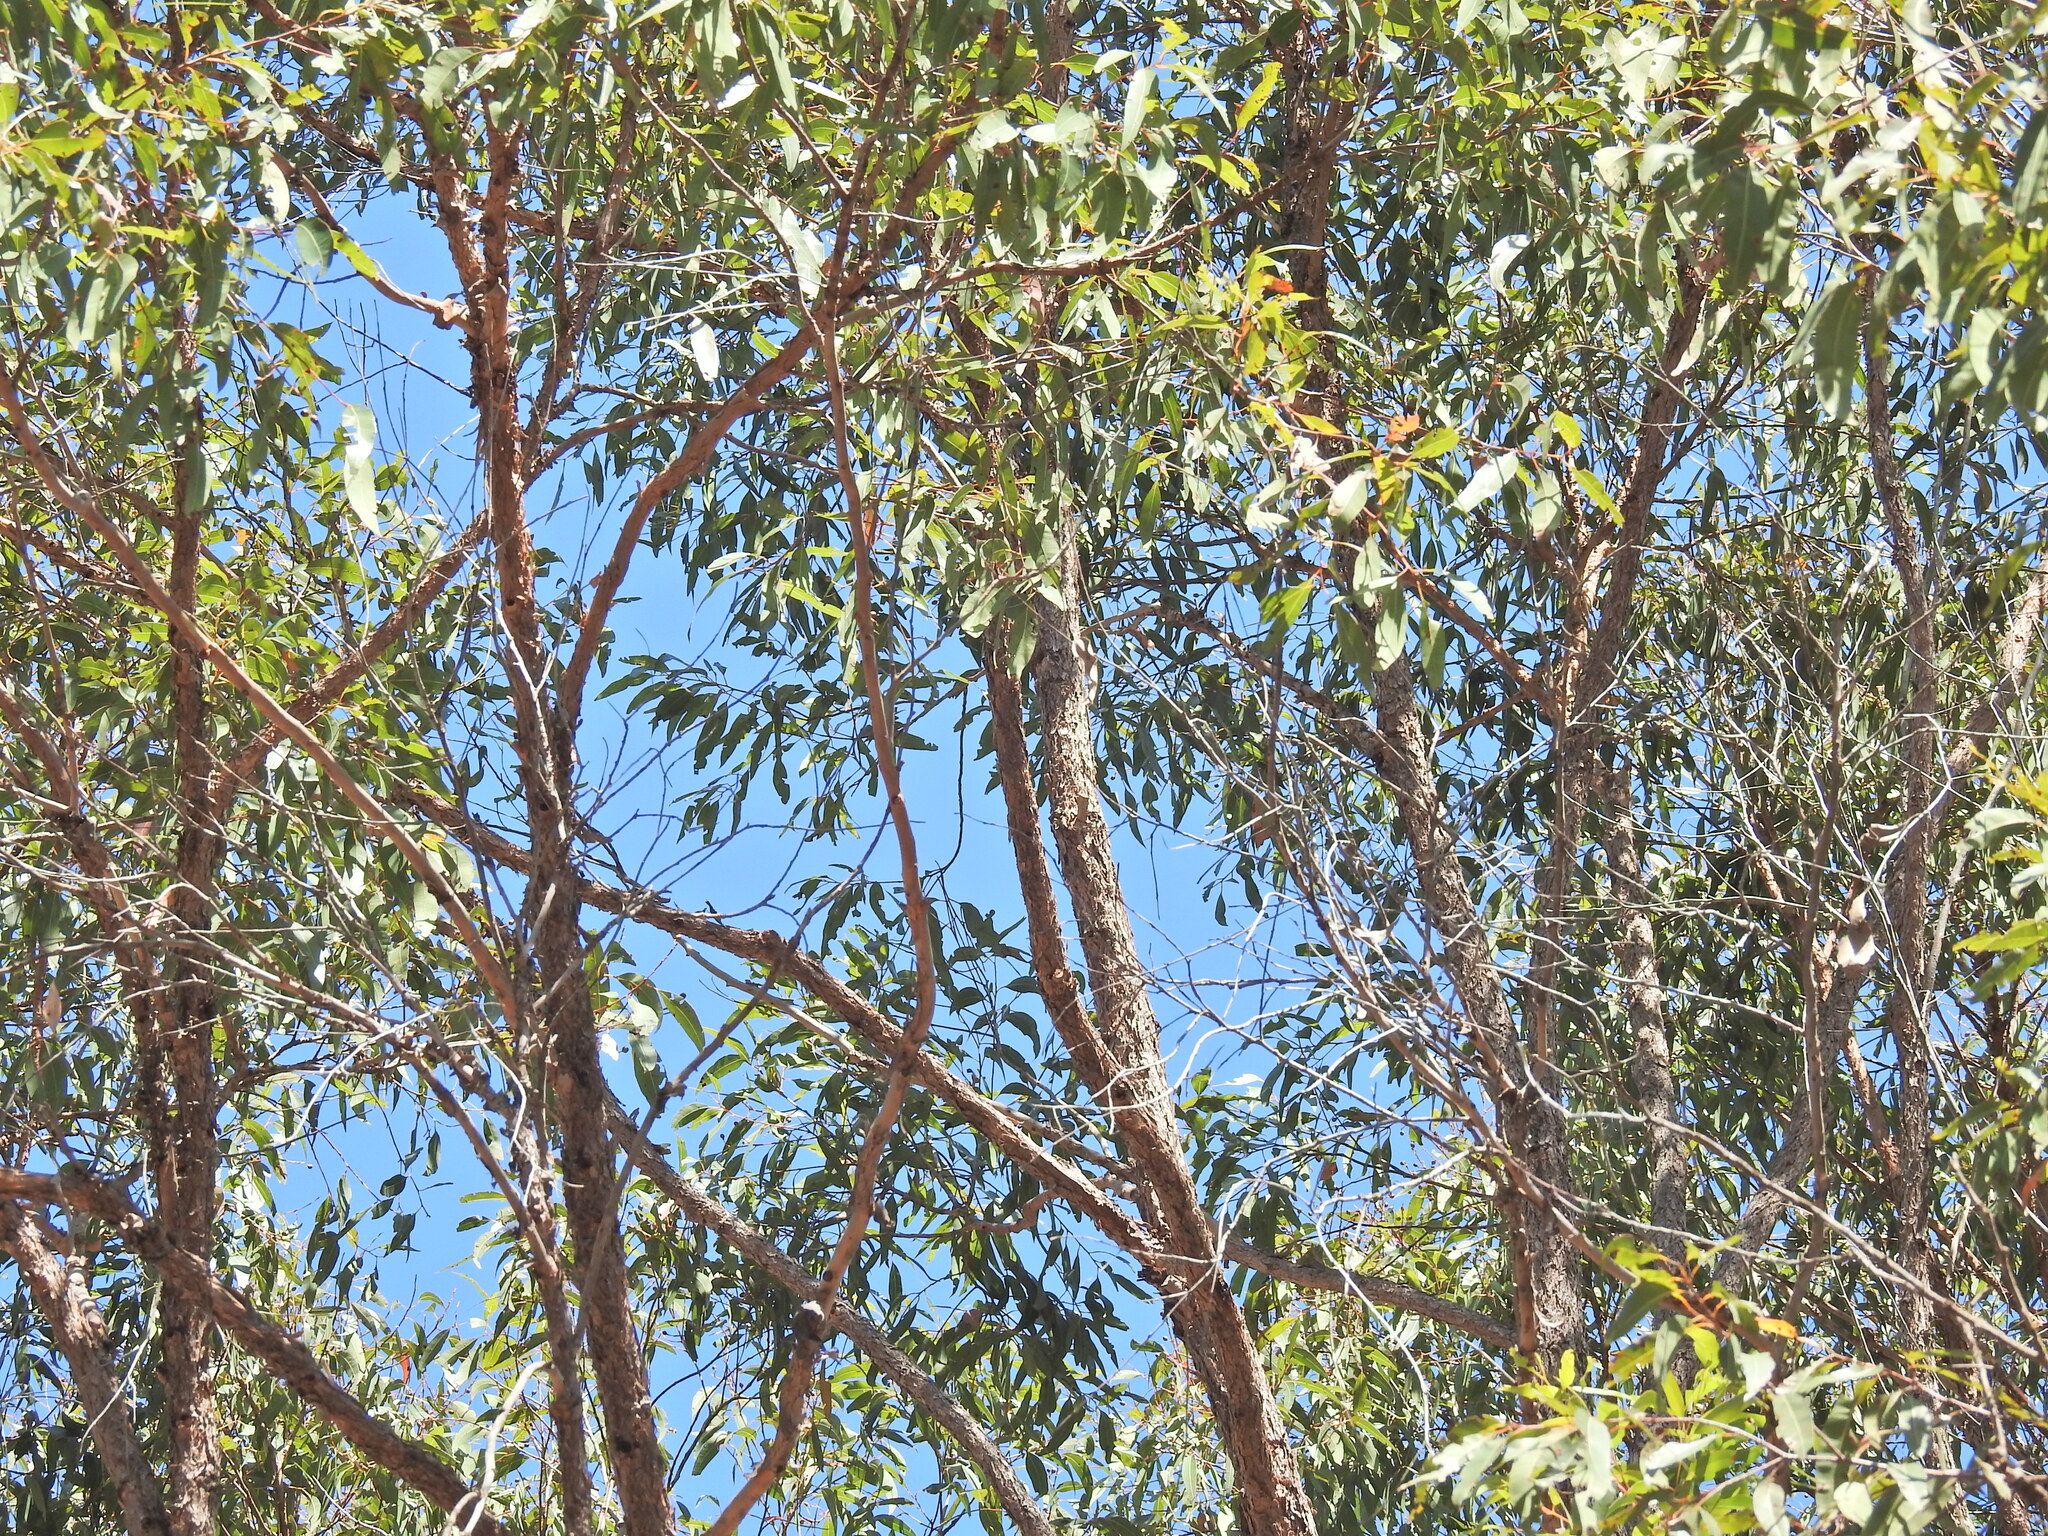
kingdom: Plantae
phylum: Tracheophyta
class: Magnoliopsida
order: Myrtales
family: Myrtaceae
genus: Corymbia
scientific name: Corymbia trachyphloia
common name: Brown-bloodwood
